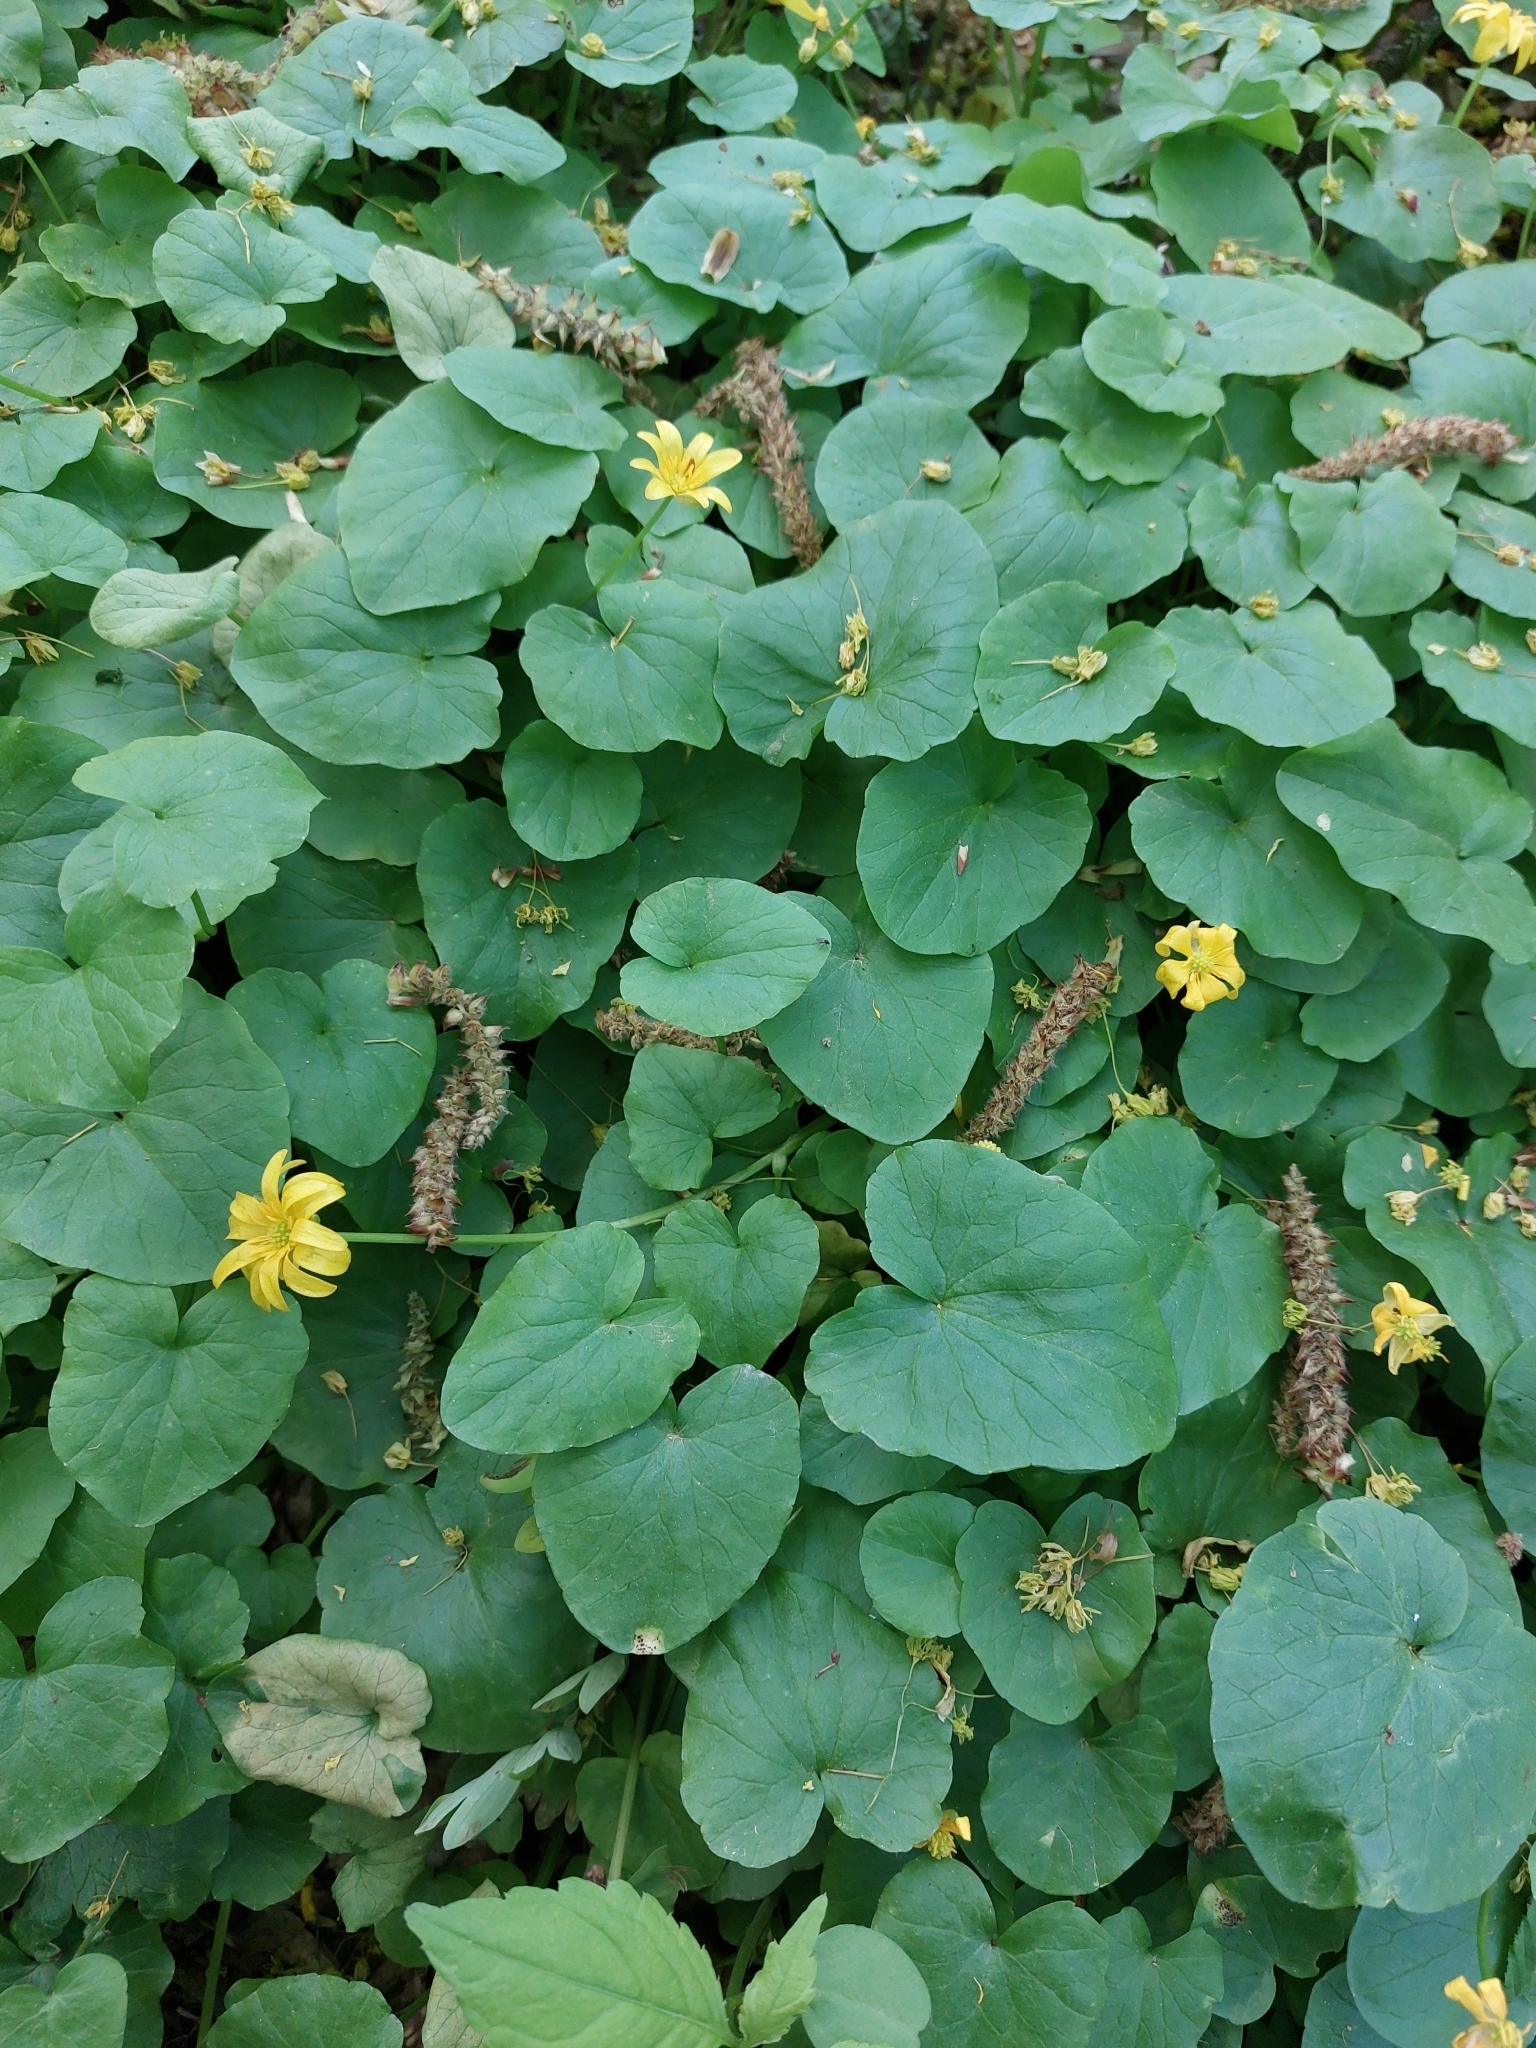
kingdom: Plantae
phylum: Tracheophyta
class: Magnoliopsida
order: Ranunculales
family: Ranunculaceae
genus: Ficaria
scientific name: Ficaria verna
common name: Lesser celandine
